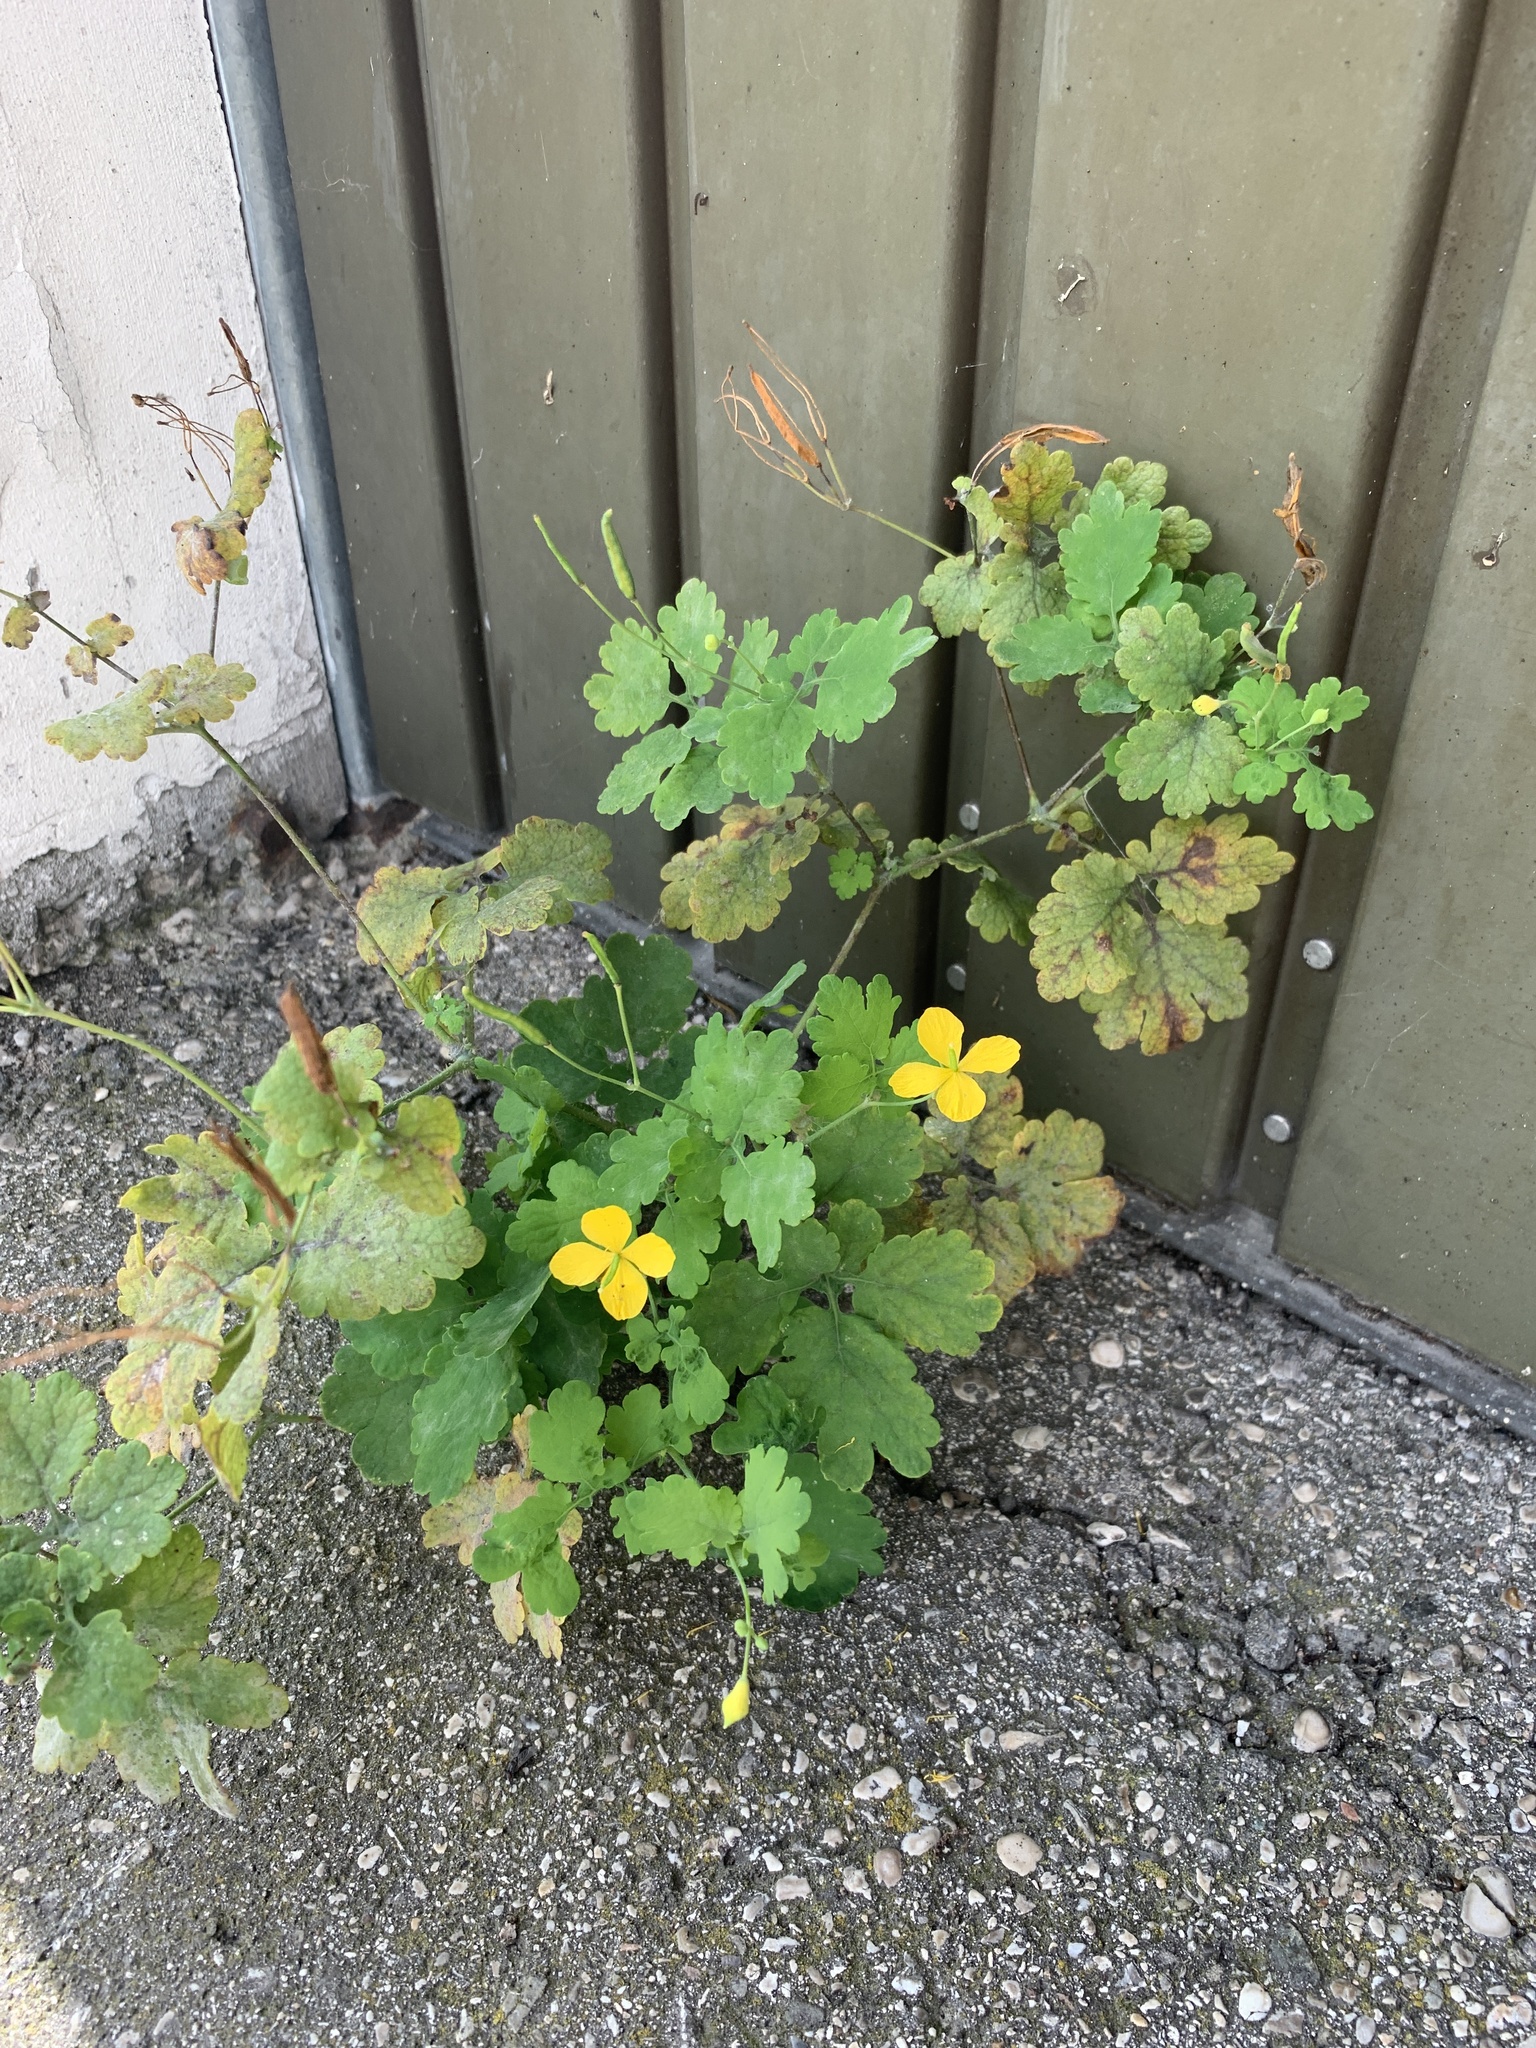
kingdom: Plantae
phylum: Tracheophyta
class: Magnoliopsida
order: Ranunculales
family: Papaveraceae
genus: Chelidonium
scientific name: Chelidonium majus
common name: Greater celandine
